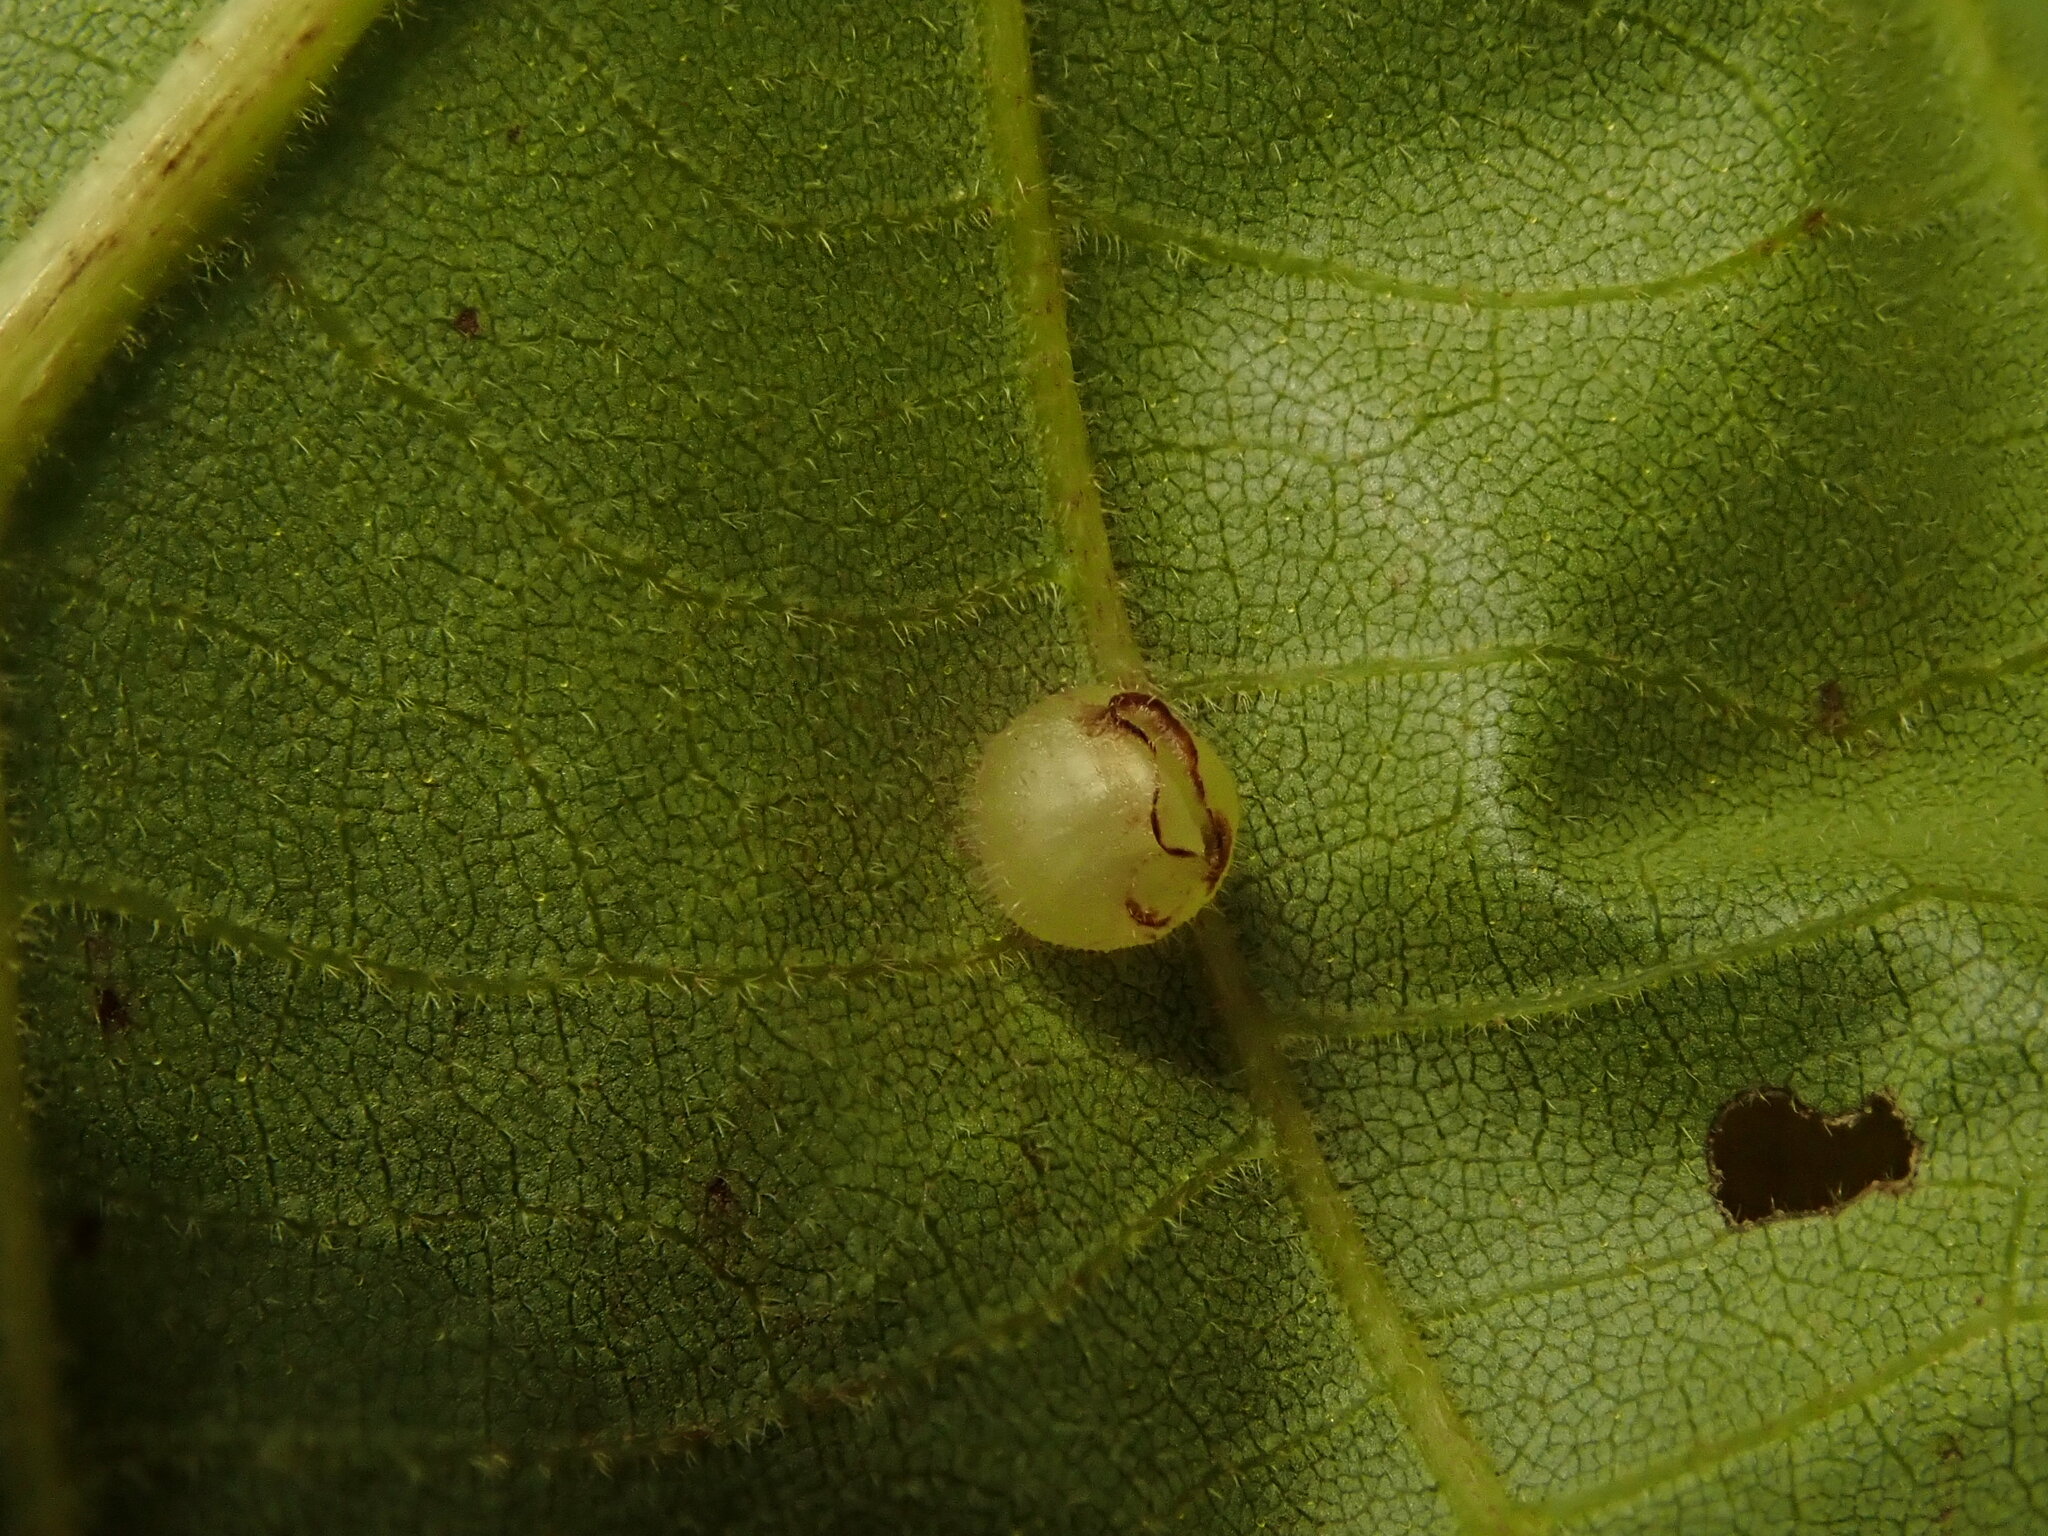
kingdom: Animalia
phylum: Arthropoda
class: Insecta
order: Diptera
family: Cecidomyiidae
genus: Caryomyia
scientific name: Caryomyia inanis
